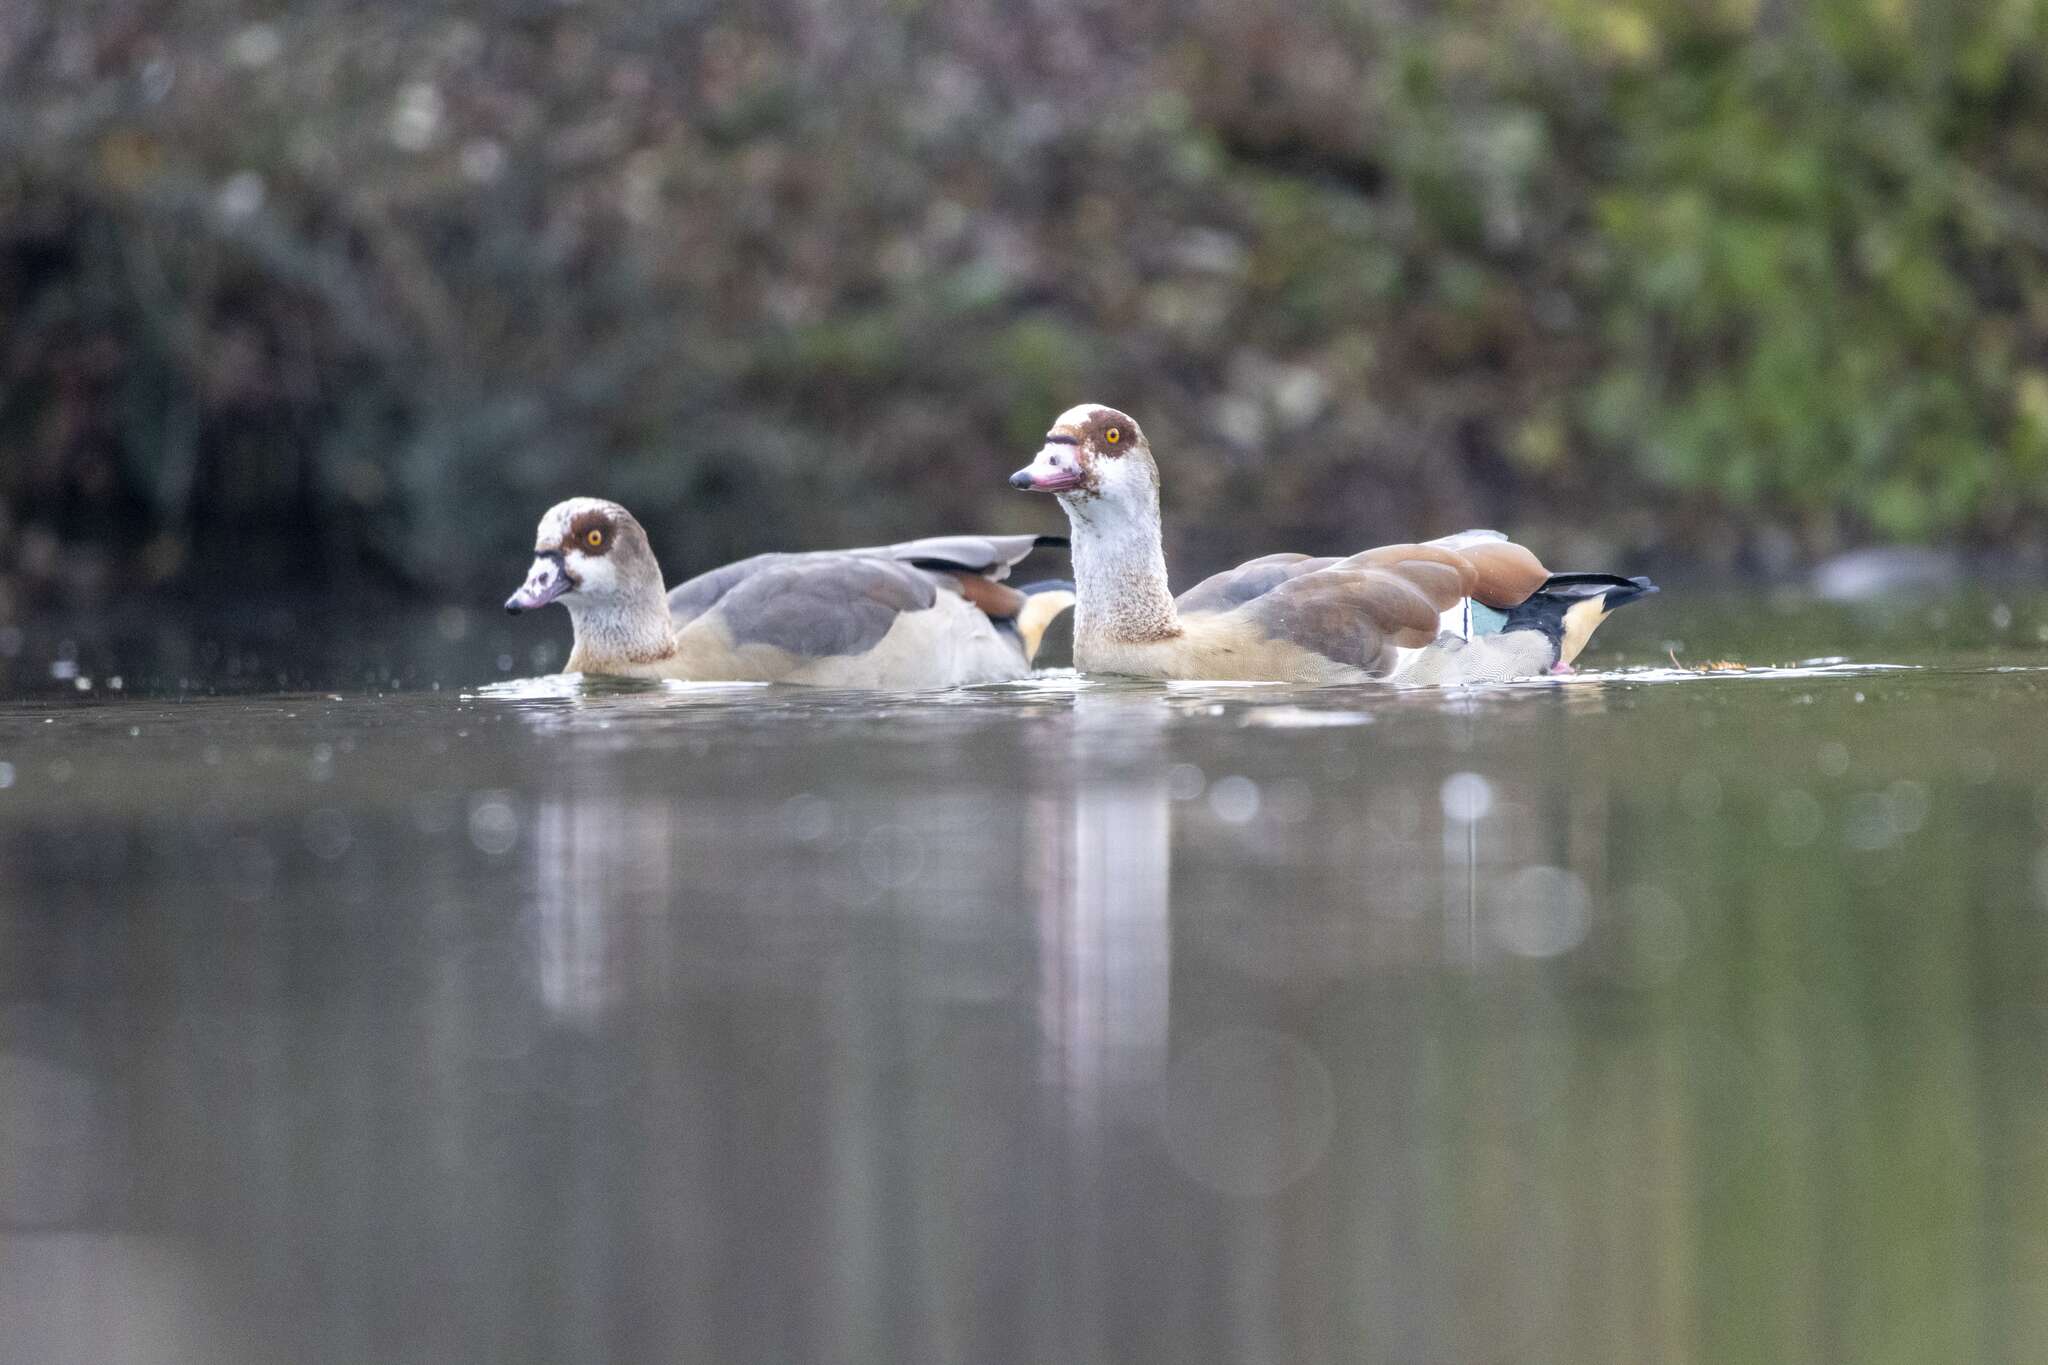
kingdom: Animalia
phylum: Chordata
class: Aves
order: Anseriformes
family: Anatidae
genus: Alopochen
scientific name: Alopochen aegyptiaca
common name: Egyptian goose
